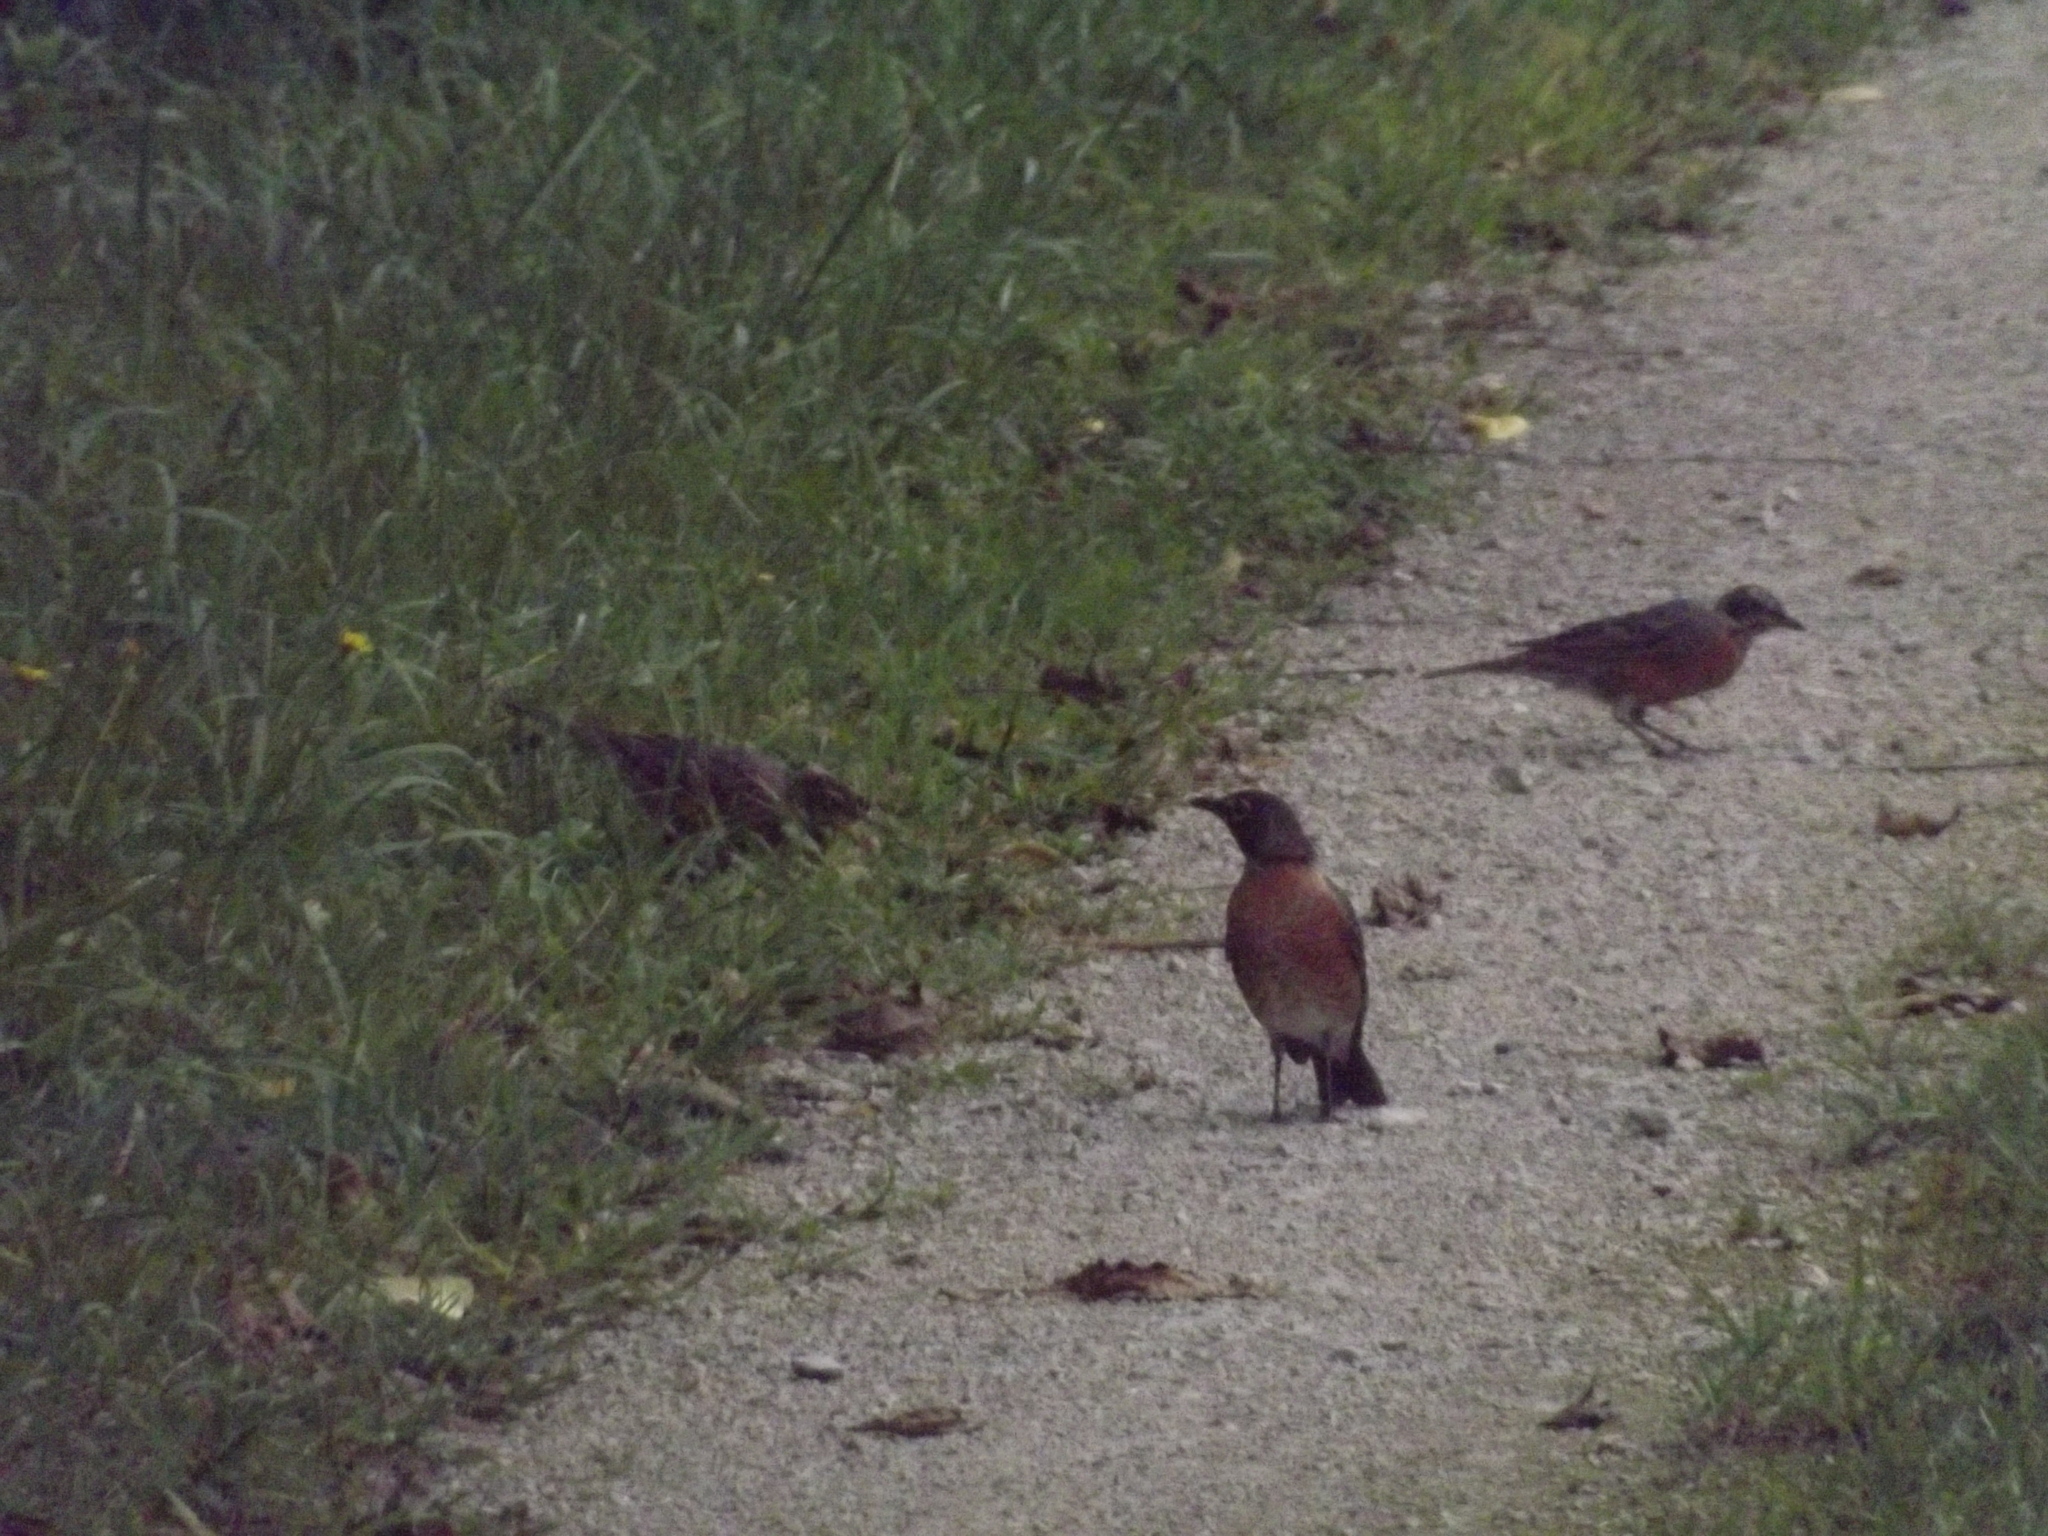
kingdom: Animalia
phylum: Chordata
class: Aves
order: Passeriformes
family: Turdidae
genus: Turdus
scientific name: Turdus migratorius
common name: American robin
